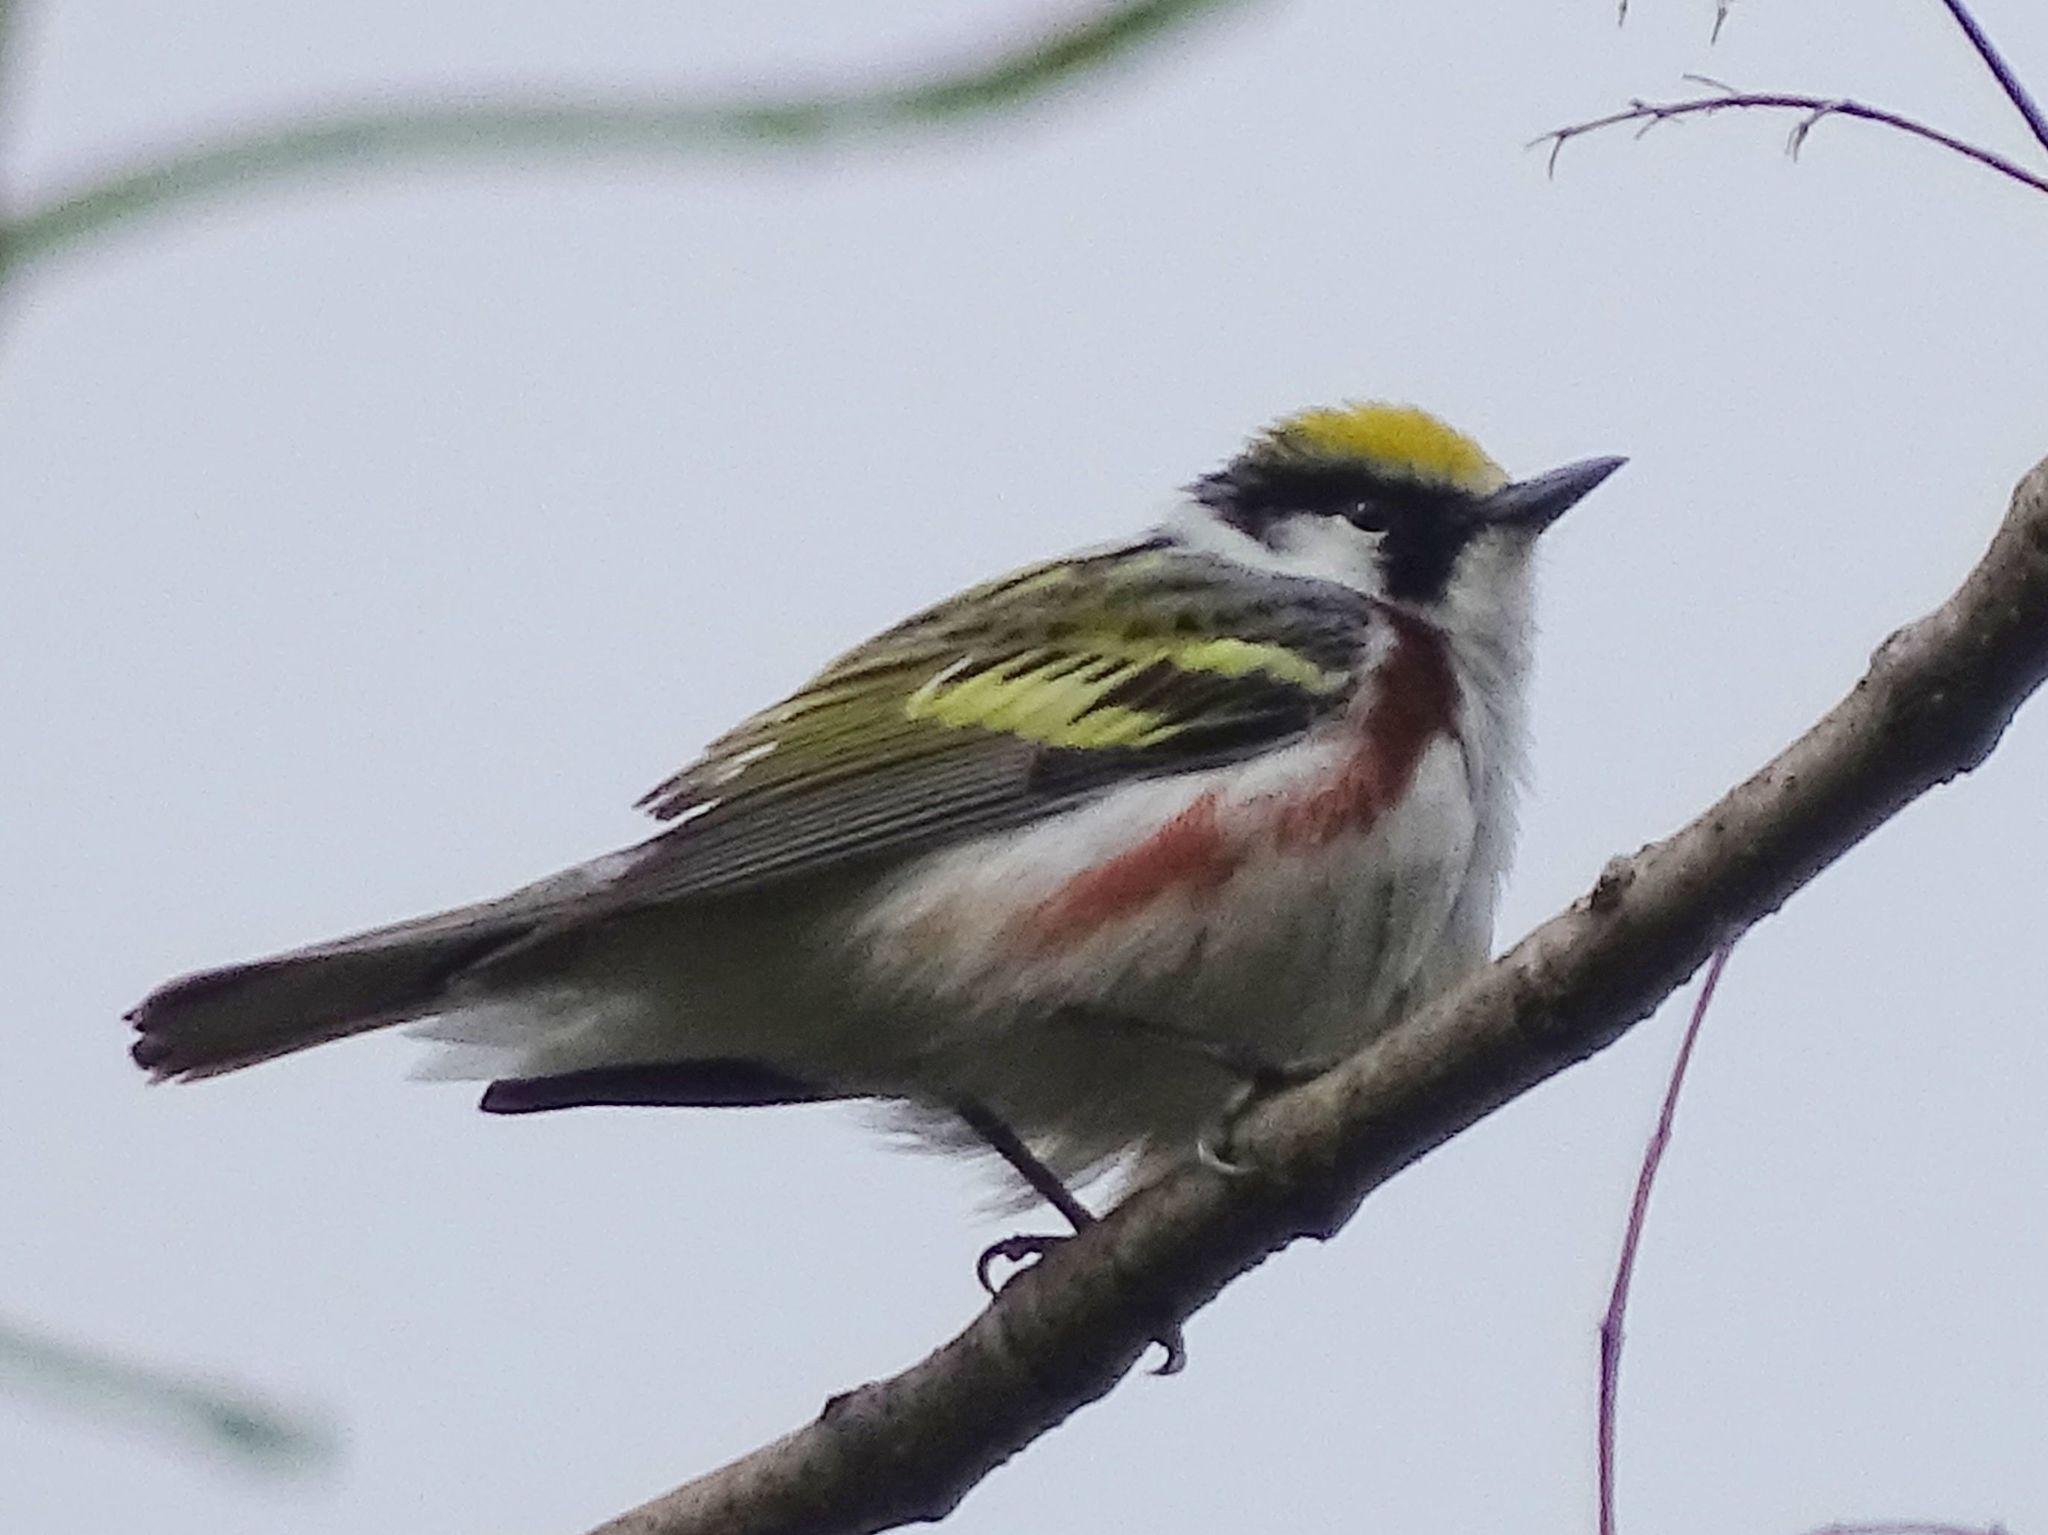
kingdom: Animalia
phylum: Chordata
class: Aves
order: Passeriformes
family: Parulidae
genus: Setophaga
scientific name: Setophaga pensylvanica
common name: Chestnut-sided warbler
